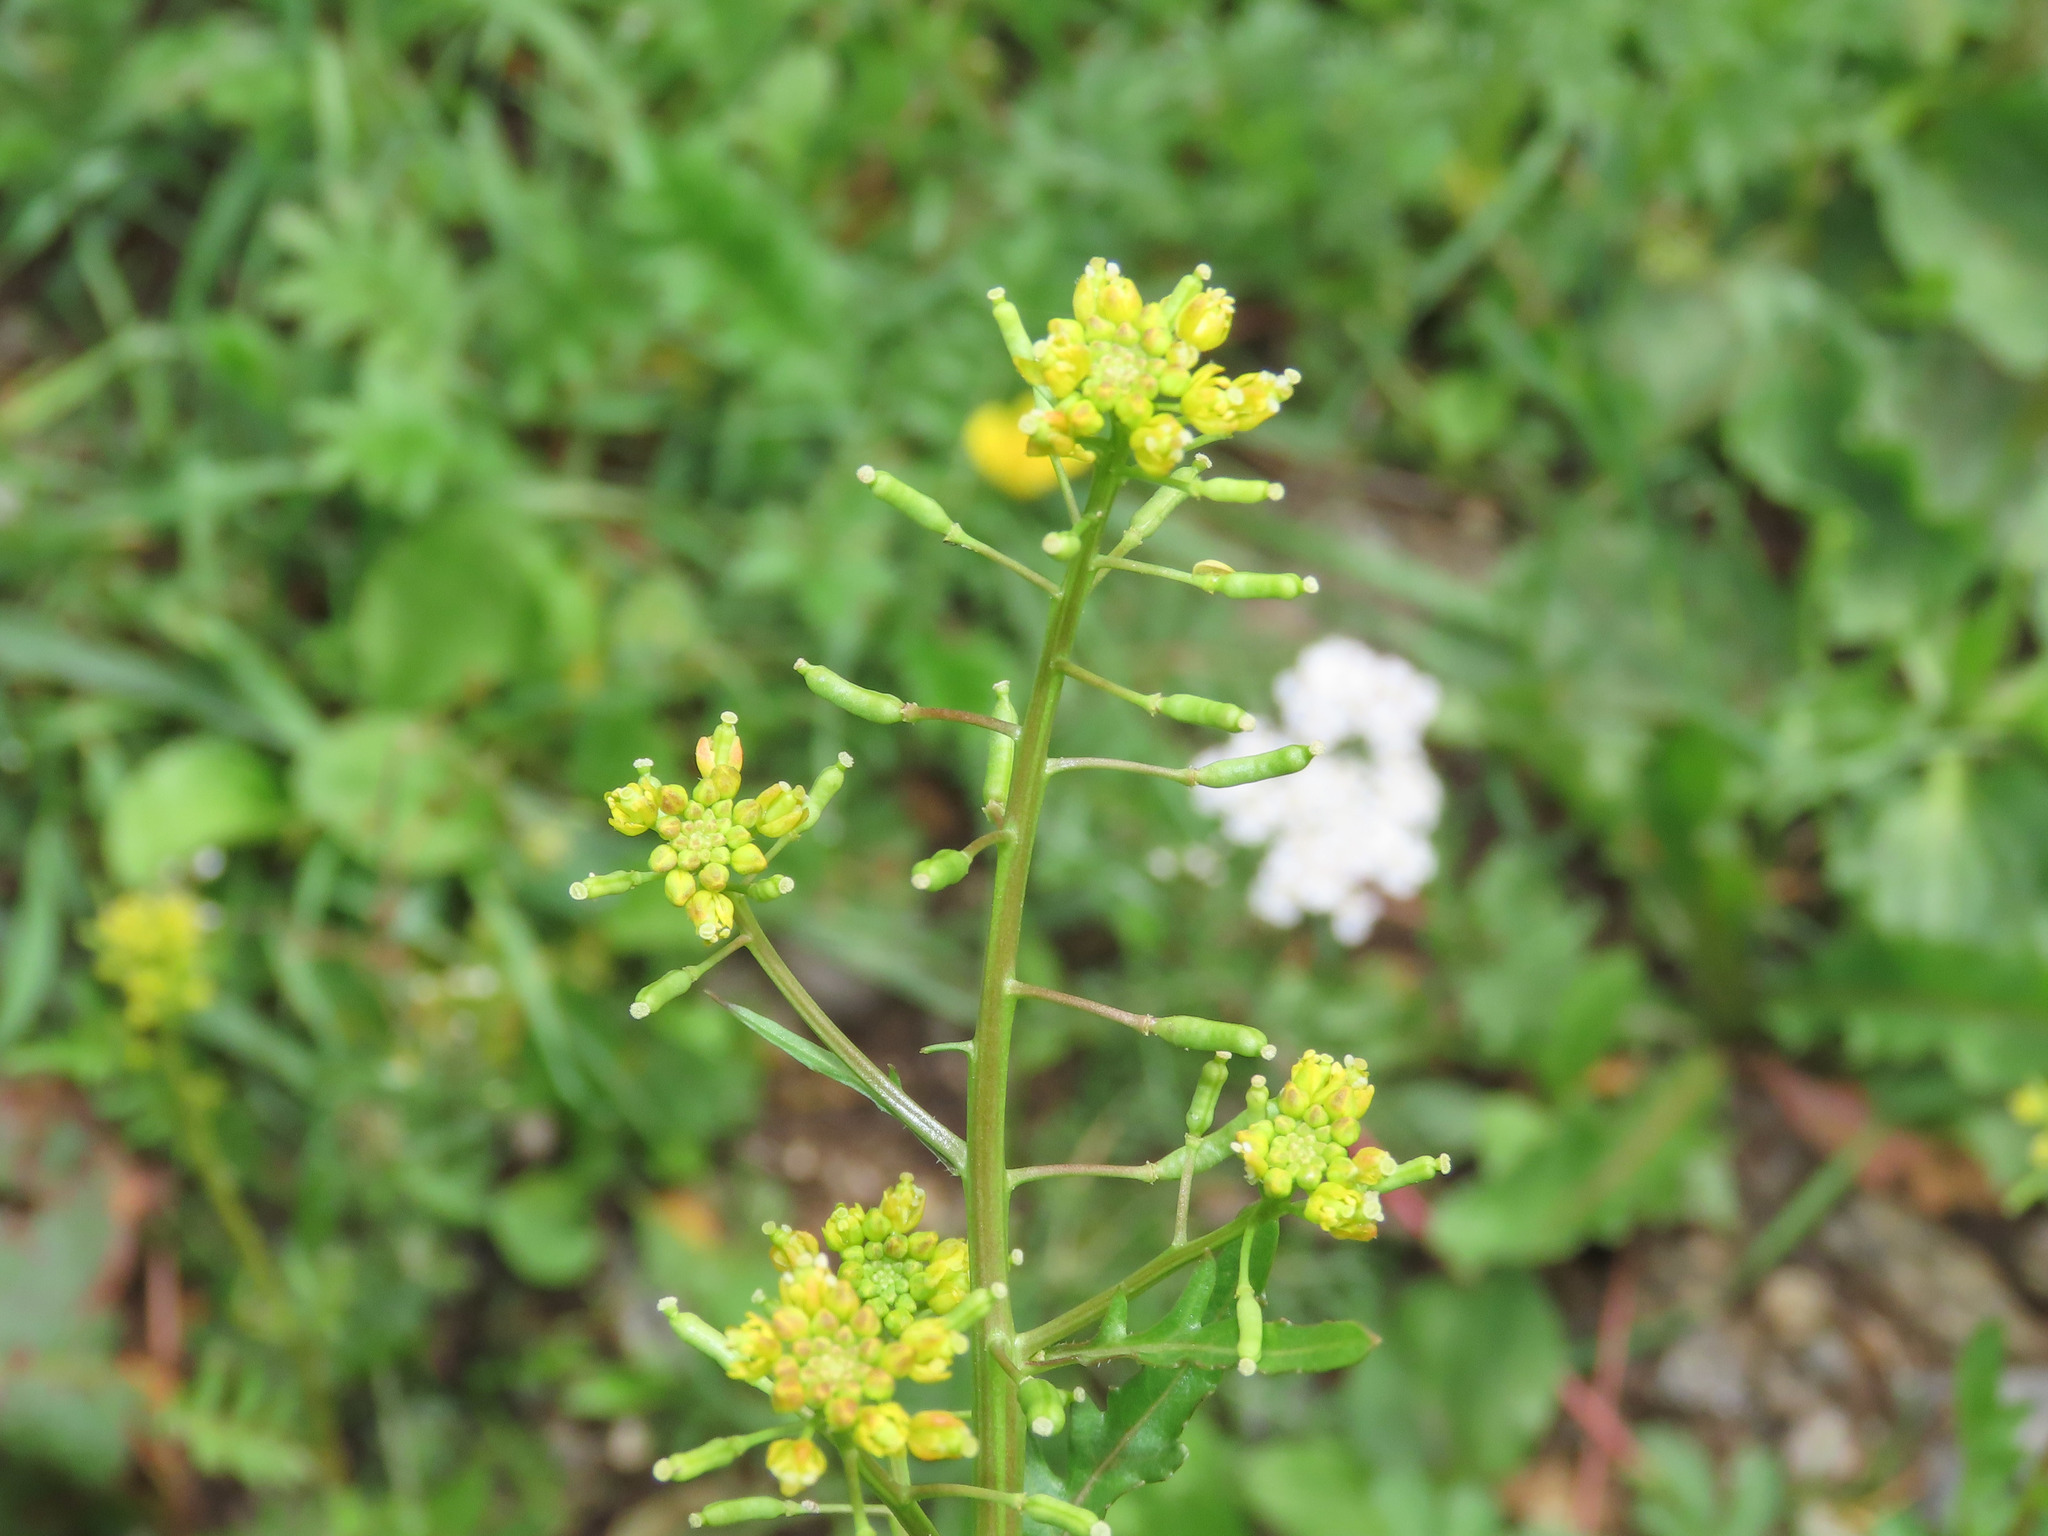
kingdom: Plantae
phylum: Tracheophyta
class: Magnoliopsida
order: Brassicales
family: Brassicaceae
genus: Rorippa
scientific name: Rorippa palustris
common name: Marsh yellow-cress
